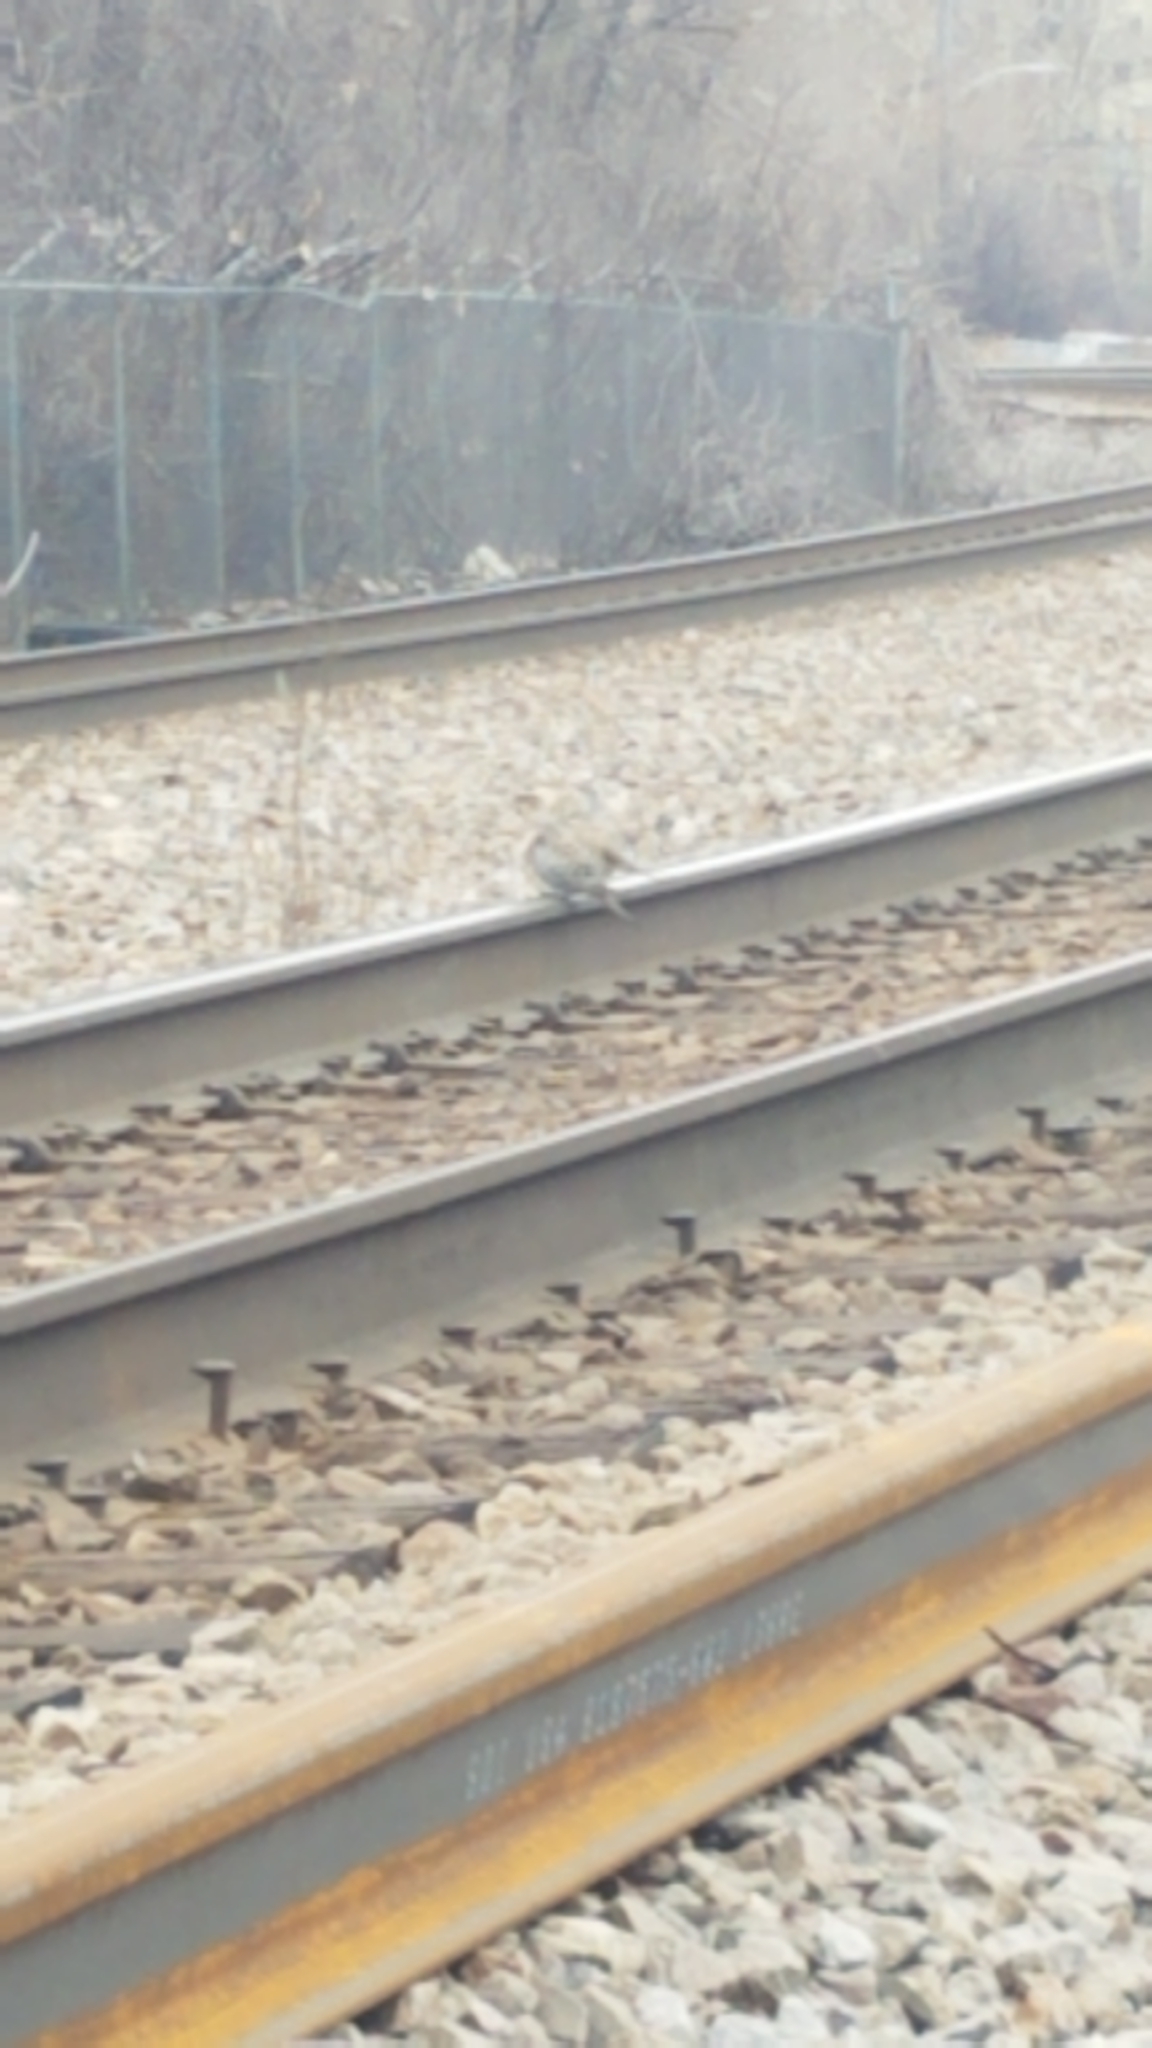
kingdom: Animalia
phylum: Chordata
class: Aves
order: Columbiformes
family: Columbidae
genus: Zenaida
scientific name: Zenaida macroura
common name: Mourning dove
